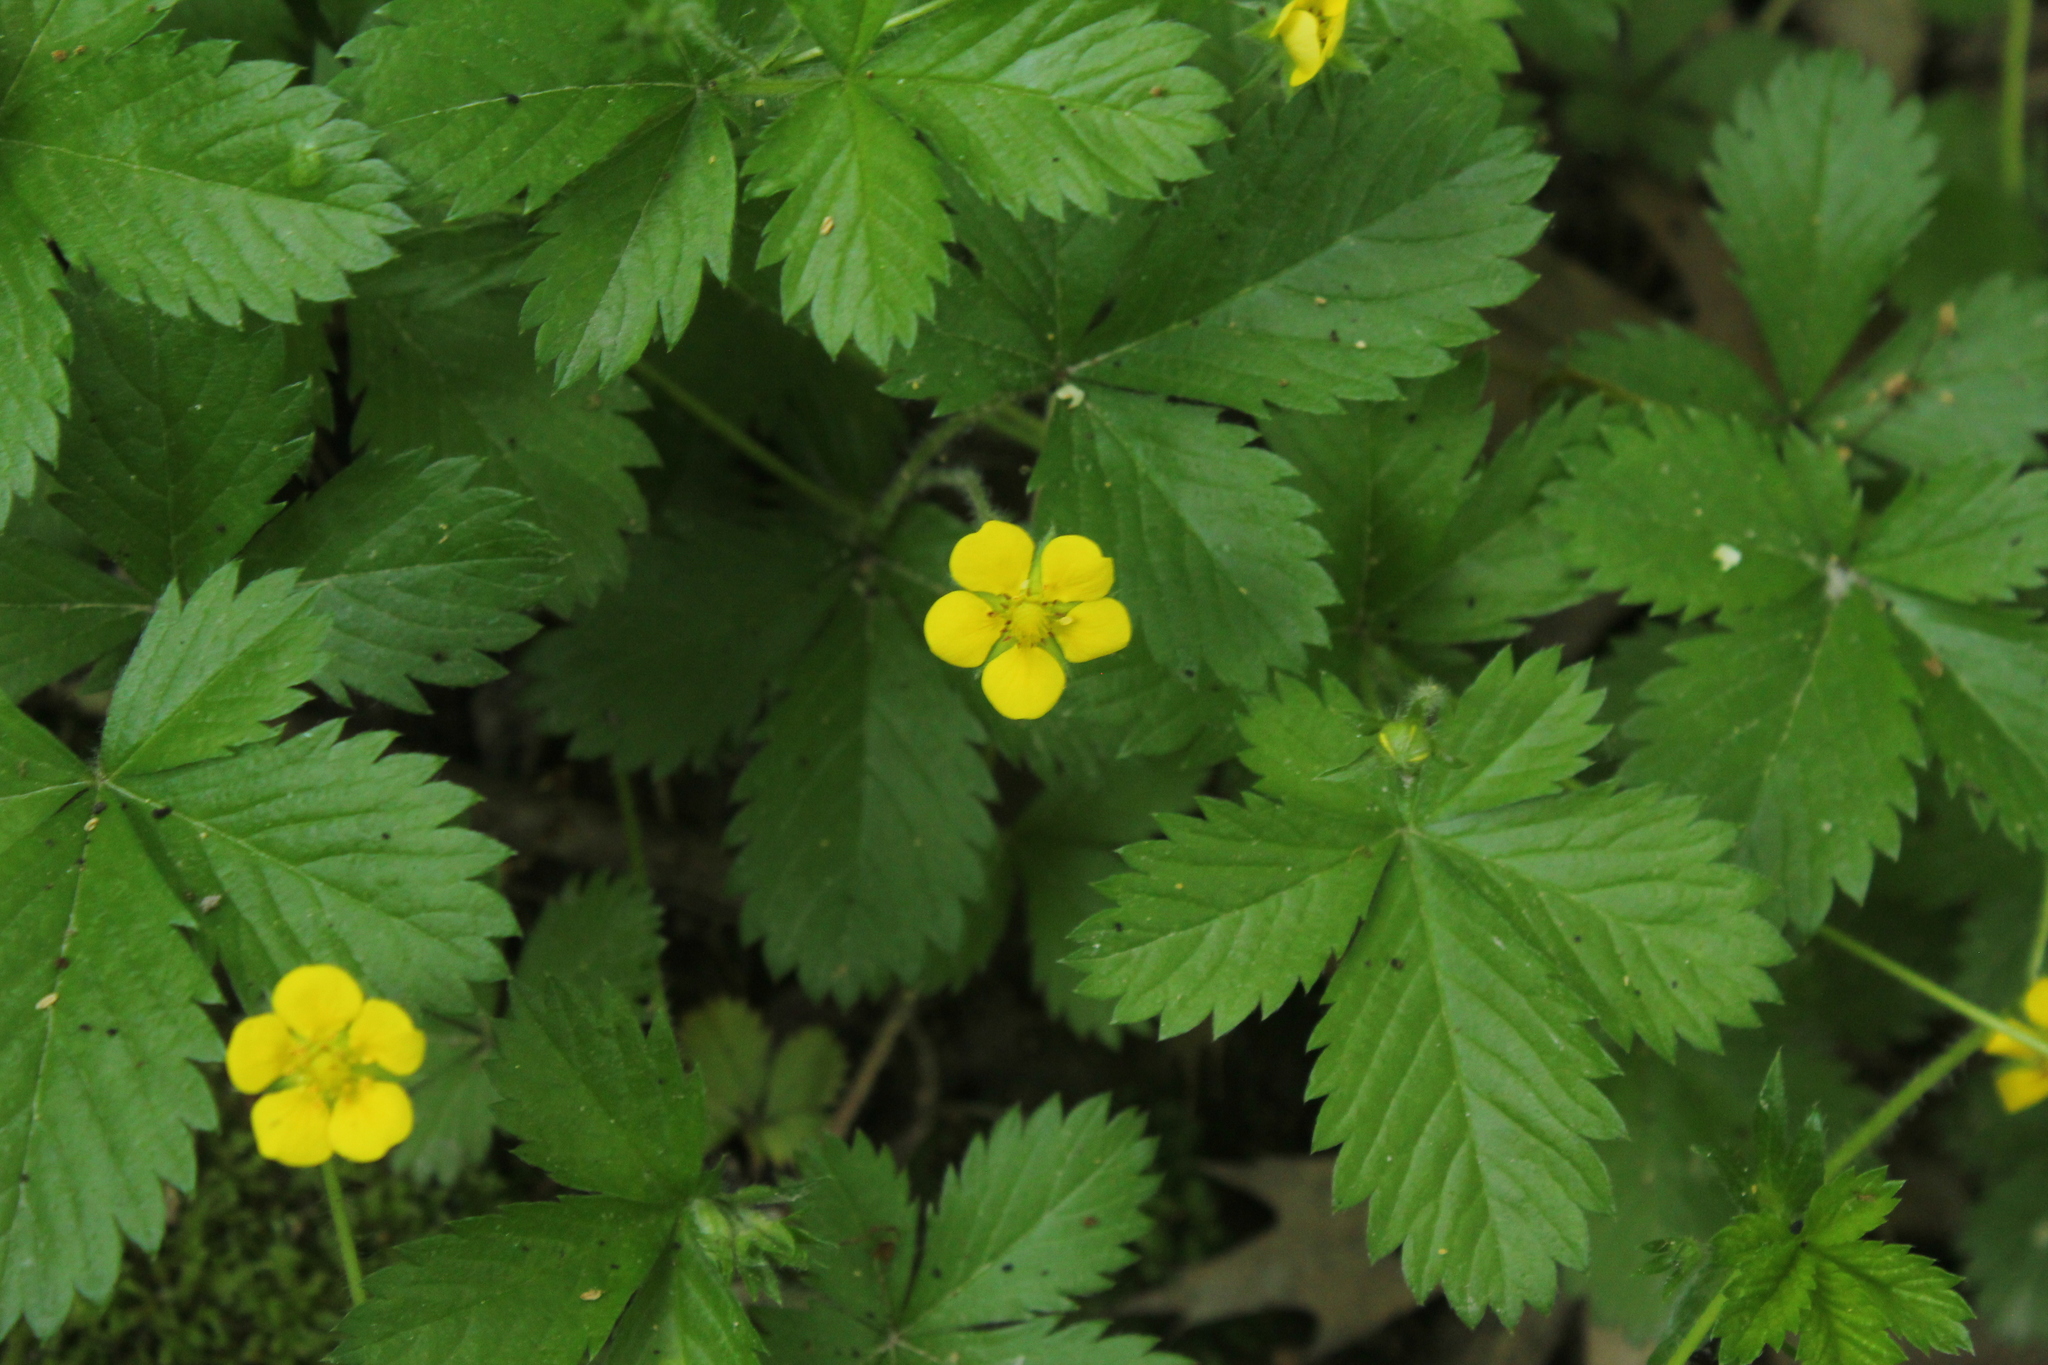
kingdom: Plantae
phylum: Tracheophyta
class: Magnoliopsida
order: Rosales
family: Rosaceae
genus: Potentilla
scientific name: Potentilla simplex
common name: Old field cinquefoil
